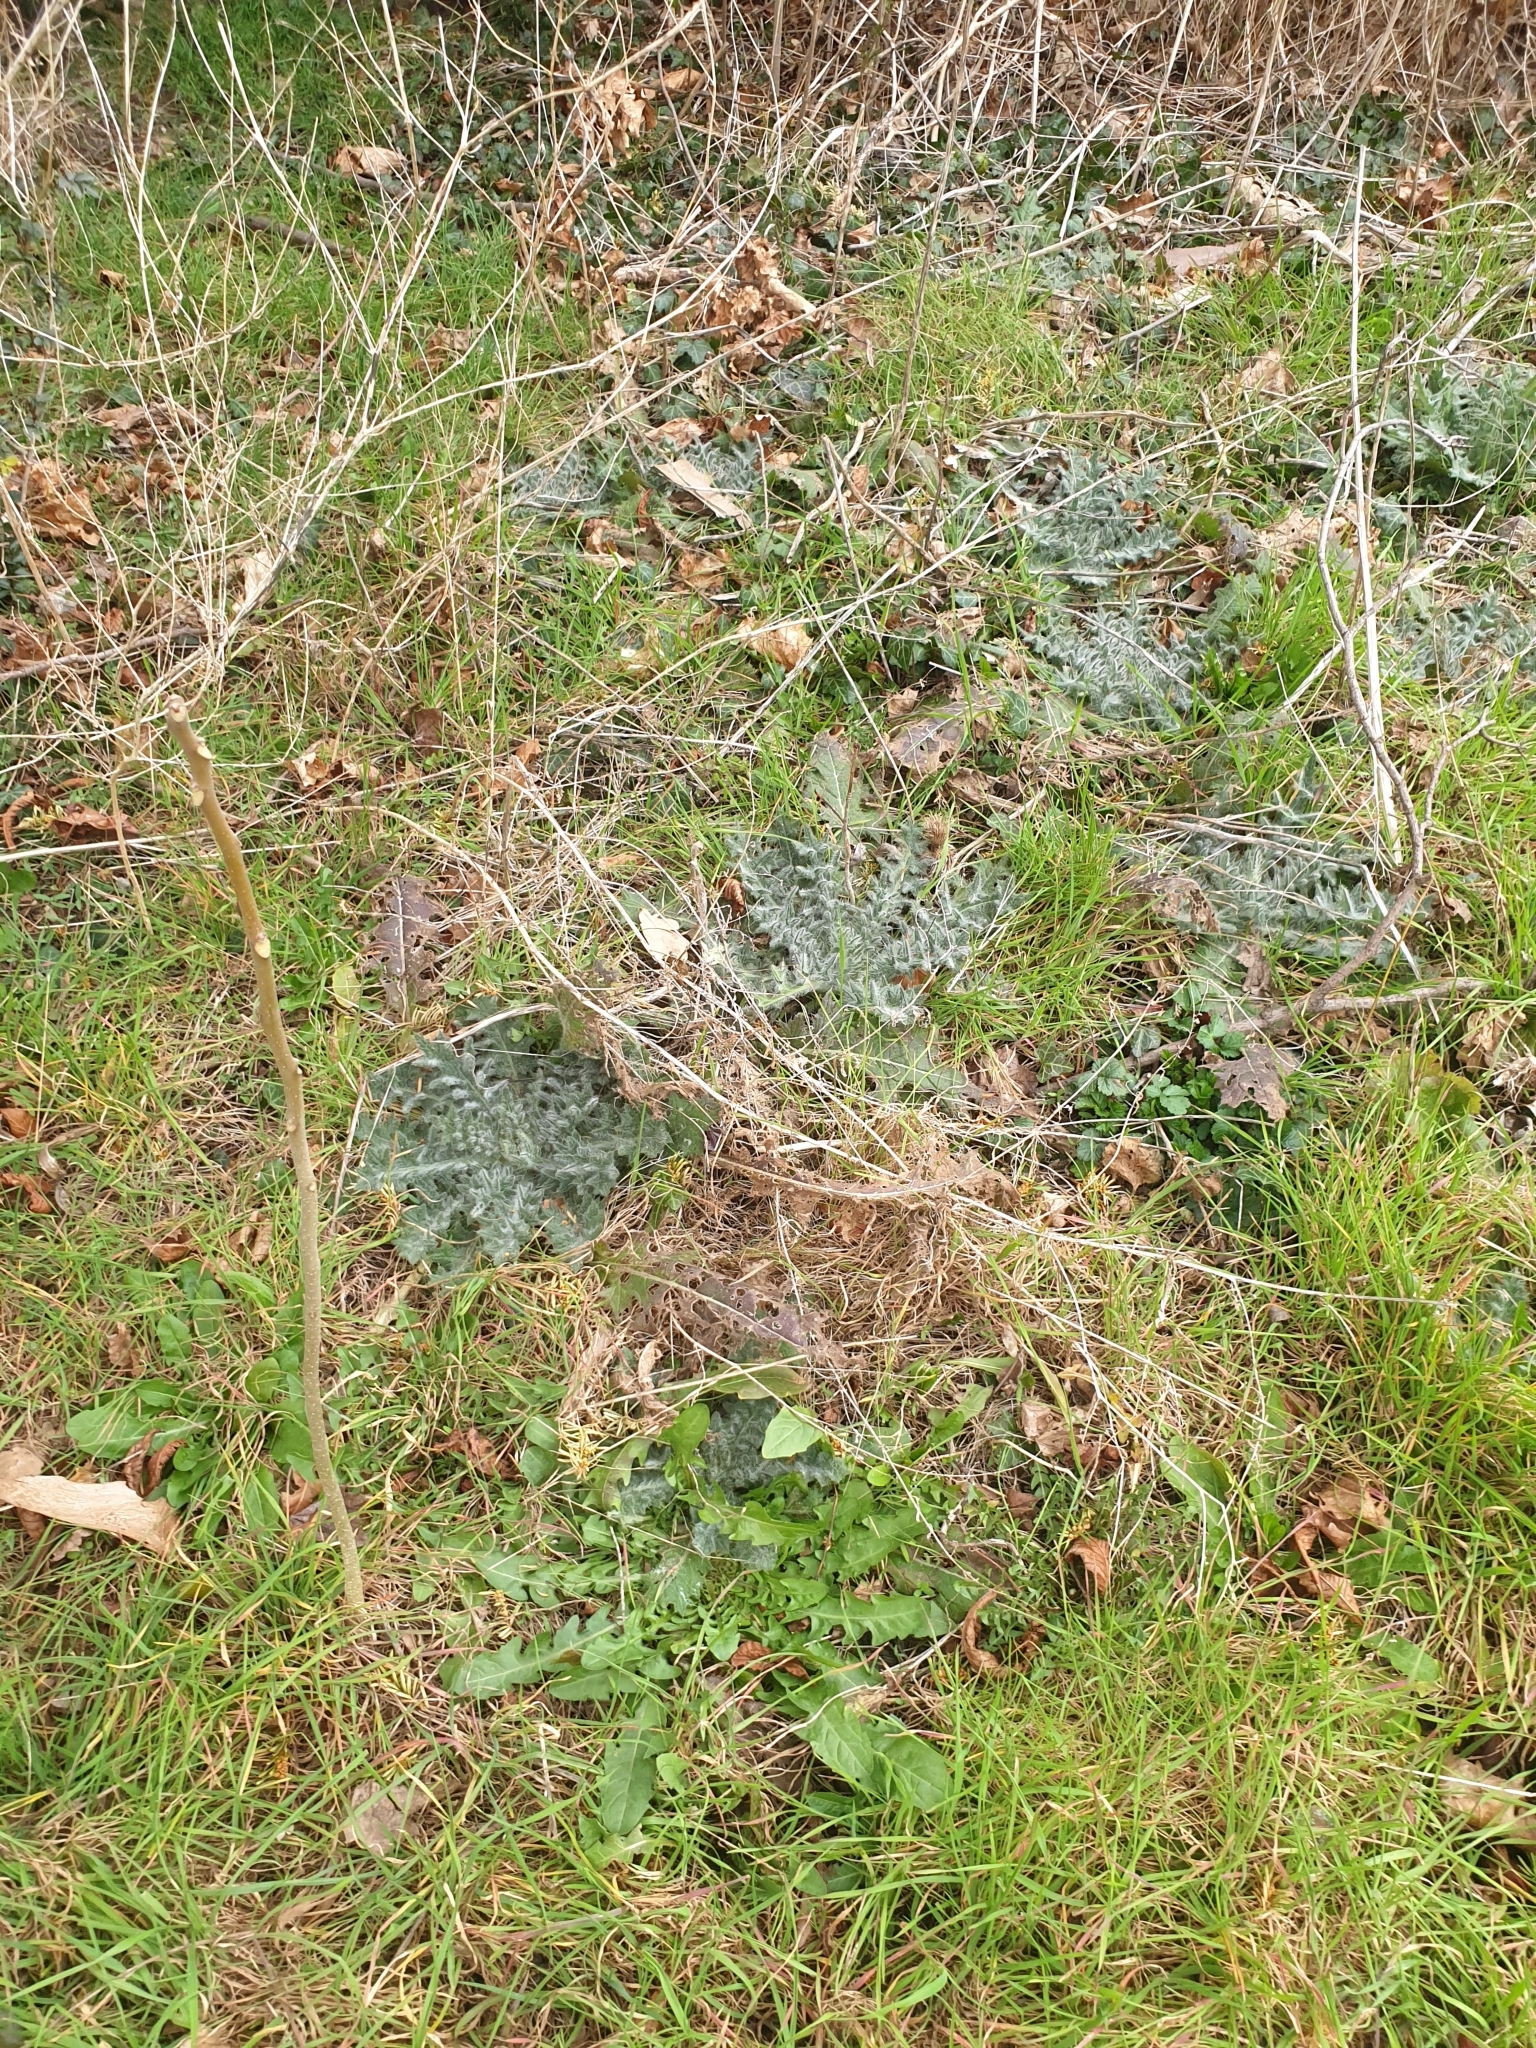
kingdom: Plantae
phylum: Tracheophyta
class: Magnoliopsida
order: Asterales
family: Asteraceae
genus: Cirsium
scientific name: Cirsium vulgare
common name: Bull thistle
